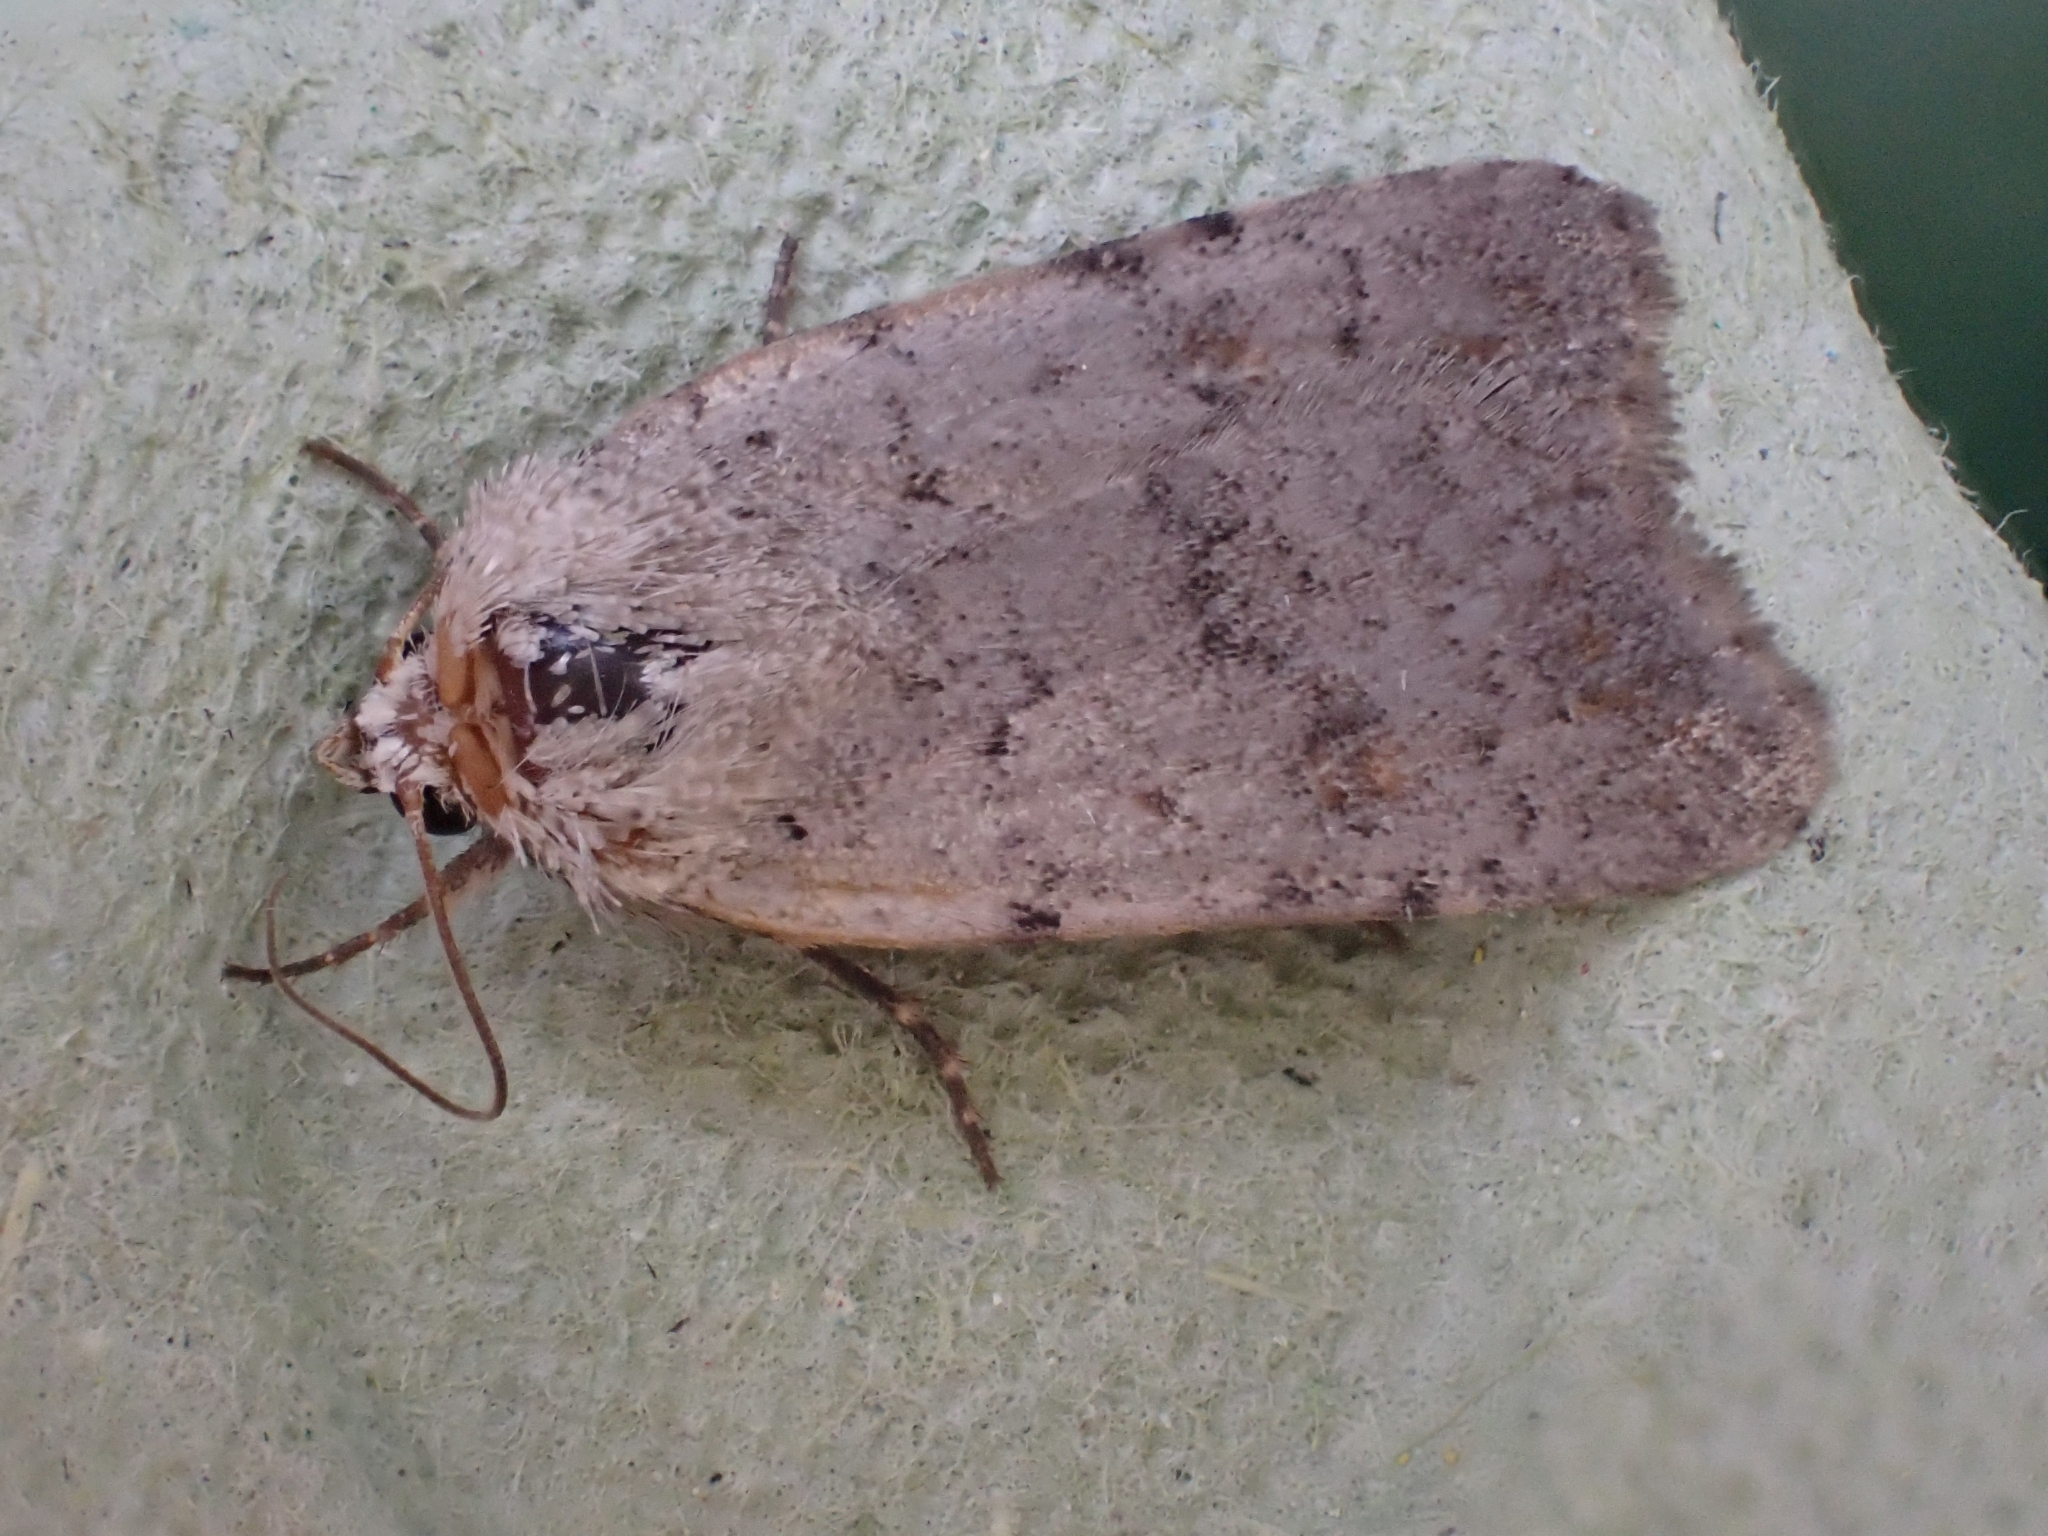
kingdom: Animalia
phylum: Arthropoda
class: Insecta
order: Lepidoptera
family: Noctuidae
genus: Epipsilia
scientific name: Epipsilia grisescens
